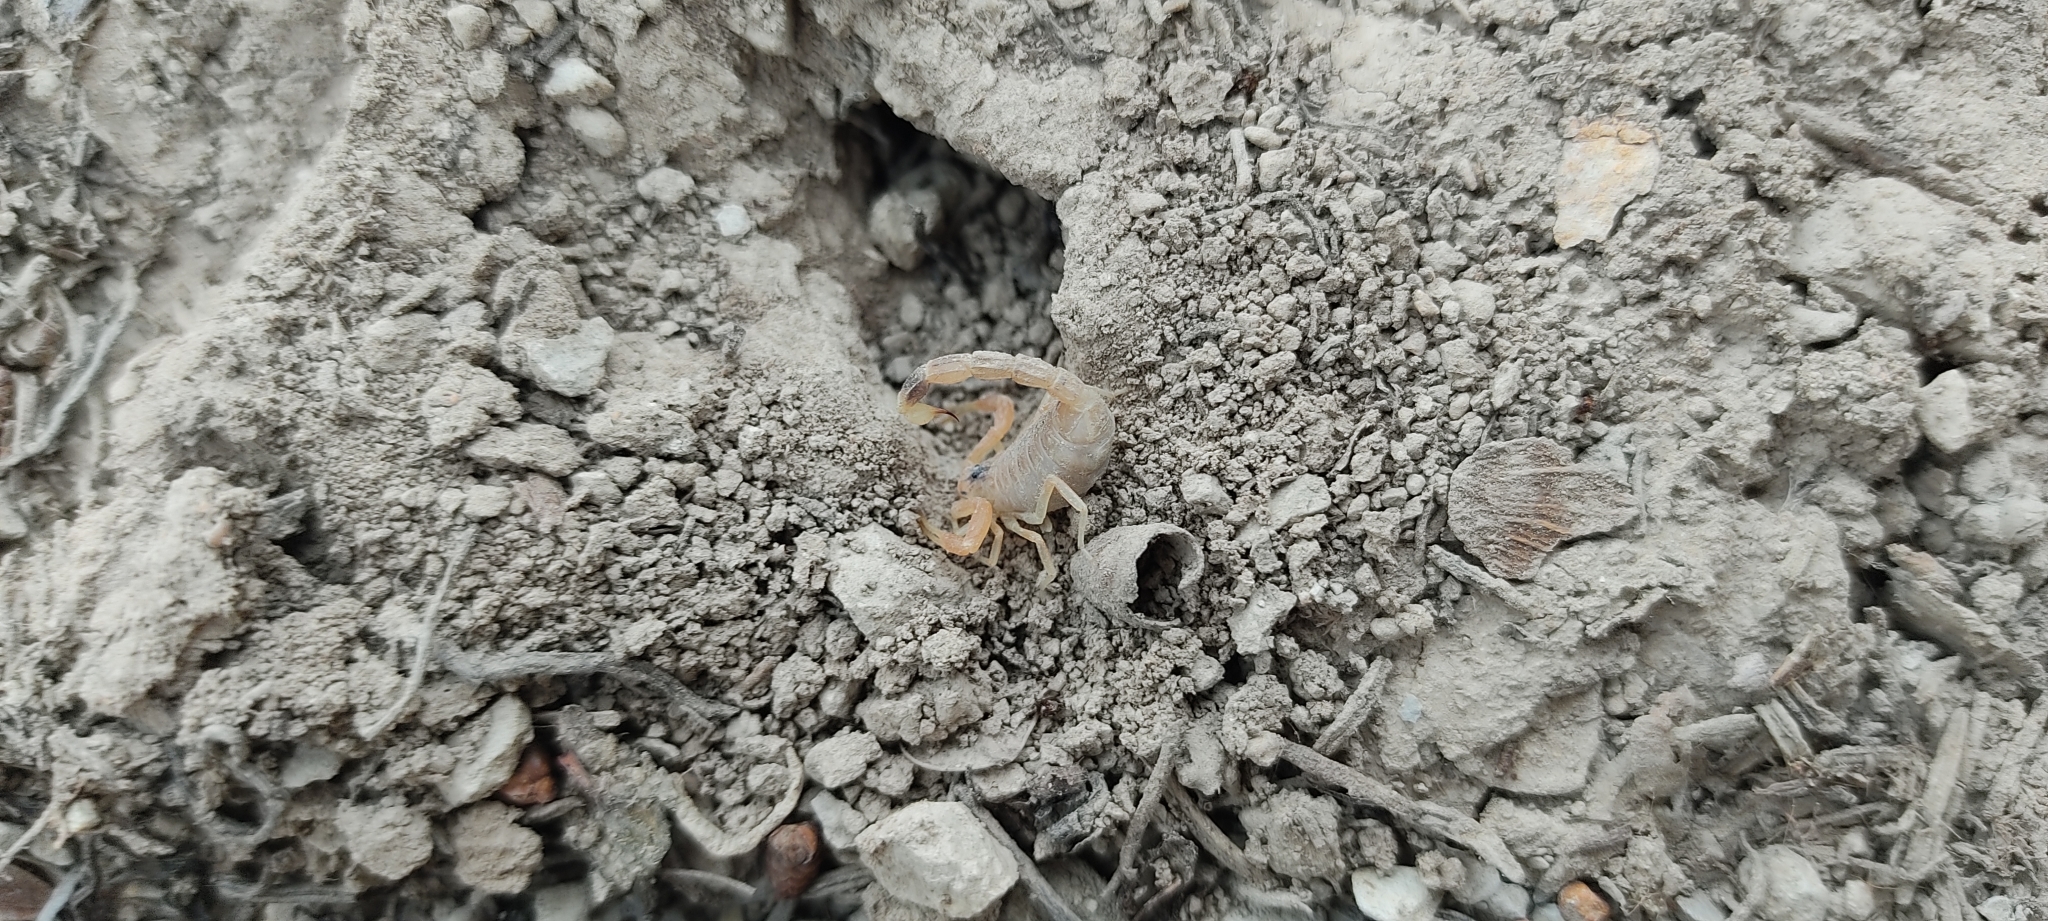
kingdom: Animalia
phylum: Arthropoda
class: Arachnida
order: Scorpiones
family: Buthidae
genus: Buthus
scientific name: Buthus occitanus
